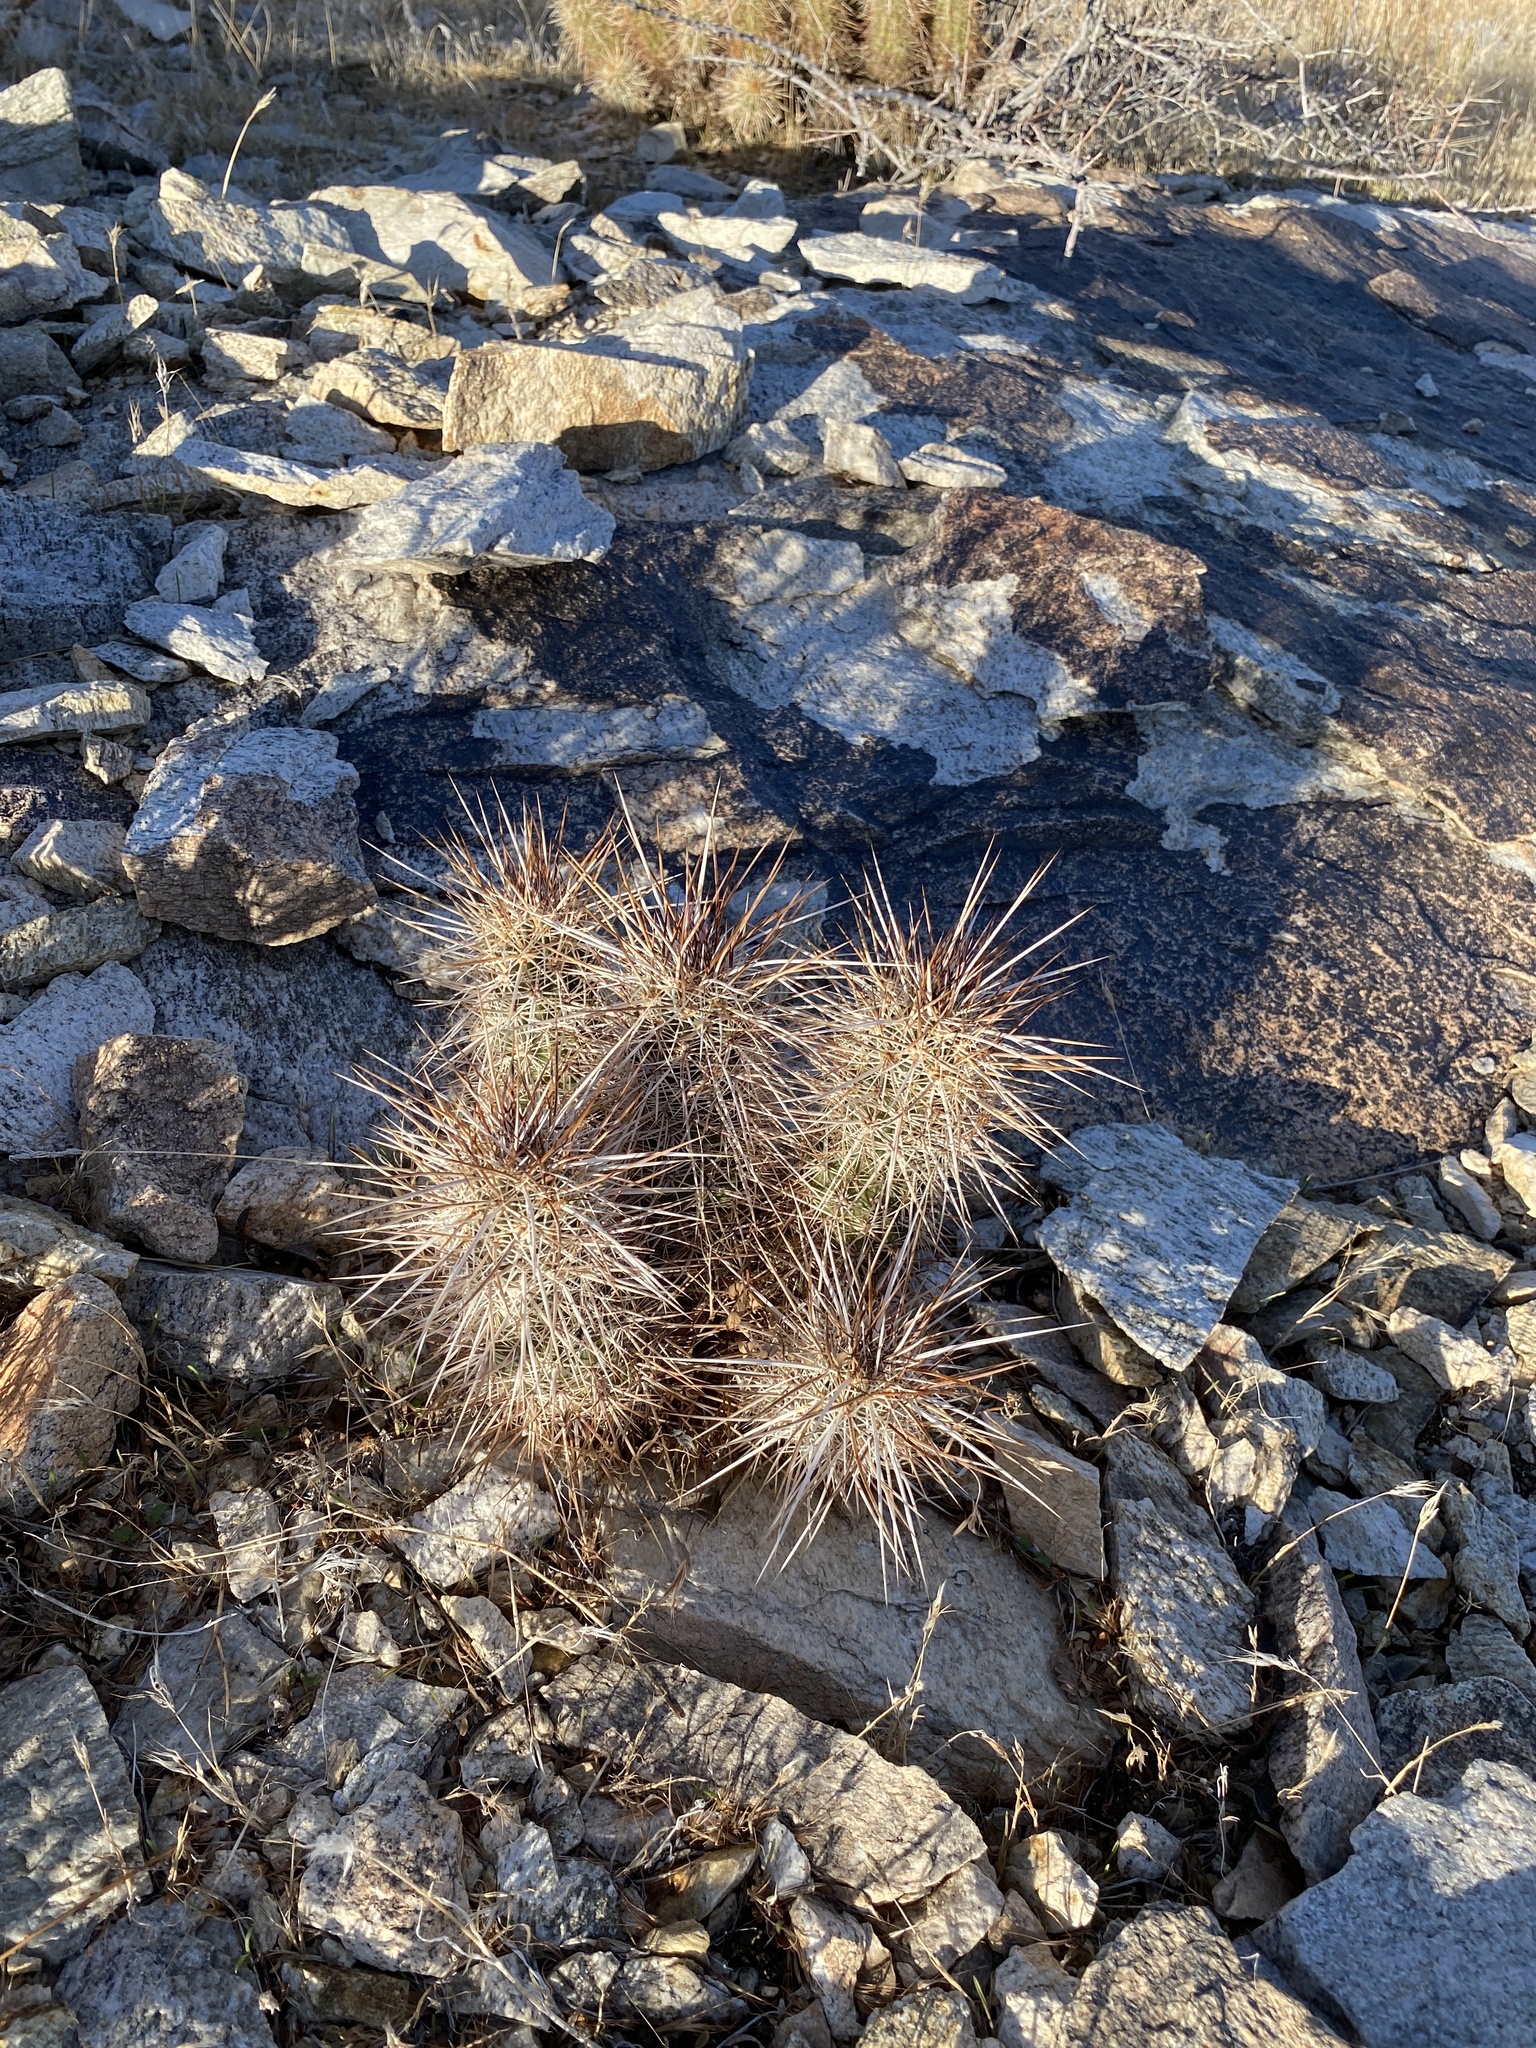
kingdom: Plantae
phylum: Tracheophyta
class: Magnoliopsida
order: Caryophyllales
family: Cactaceae
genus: Echinocereus
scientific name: Echinocereus engelmannii
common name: Engelmann's hedgehog cactus
